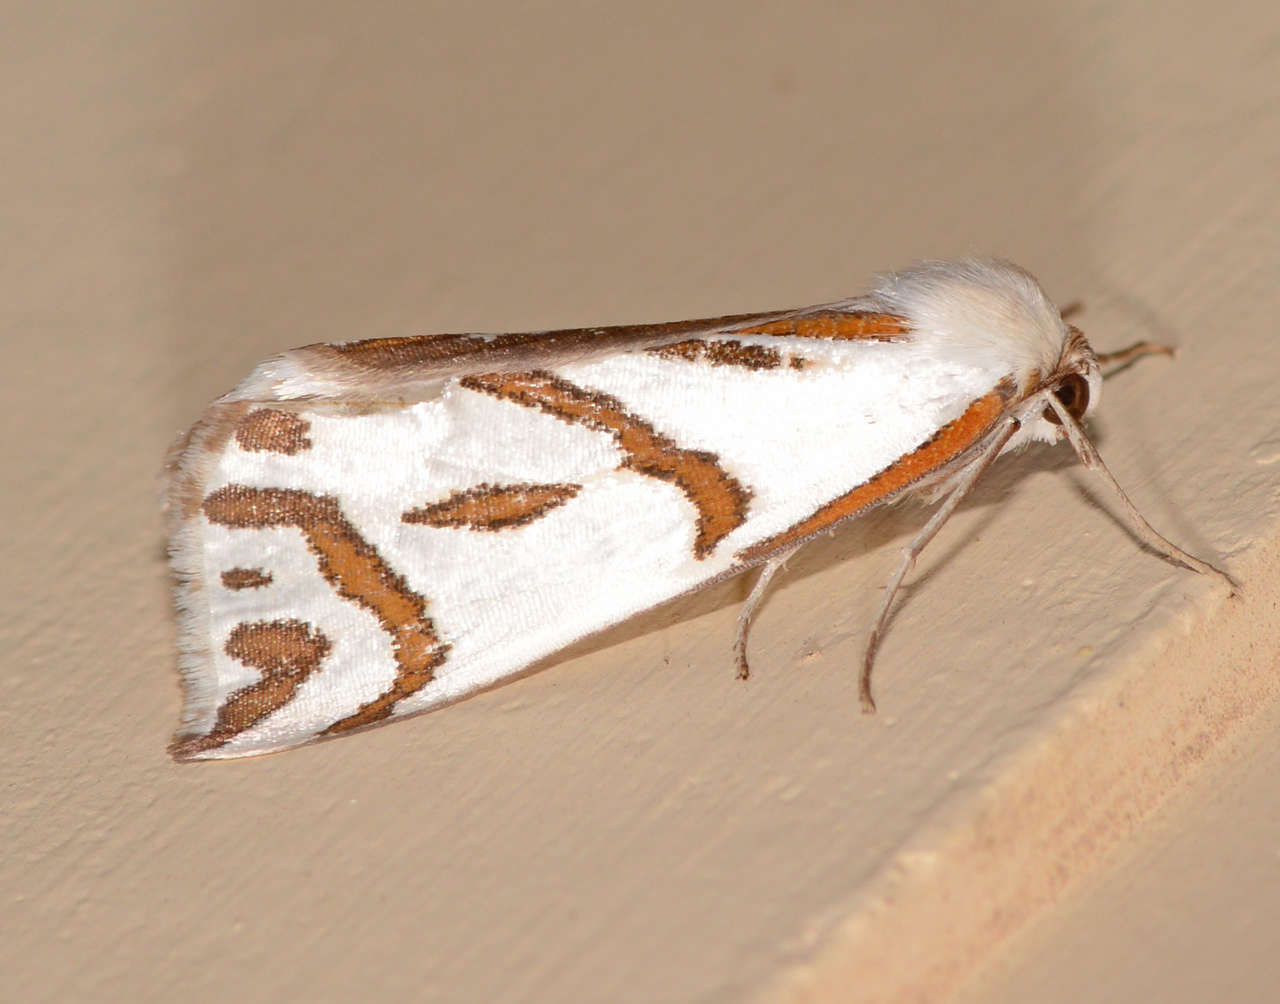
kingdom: Animalia
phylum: Arthropoda
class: Insecta
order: Lepidoptera
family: Geometridae
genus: Thalaina
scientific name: Thalaina inscripta
